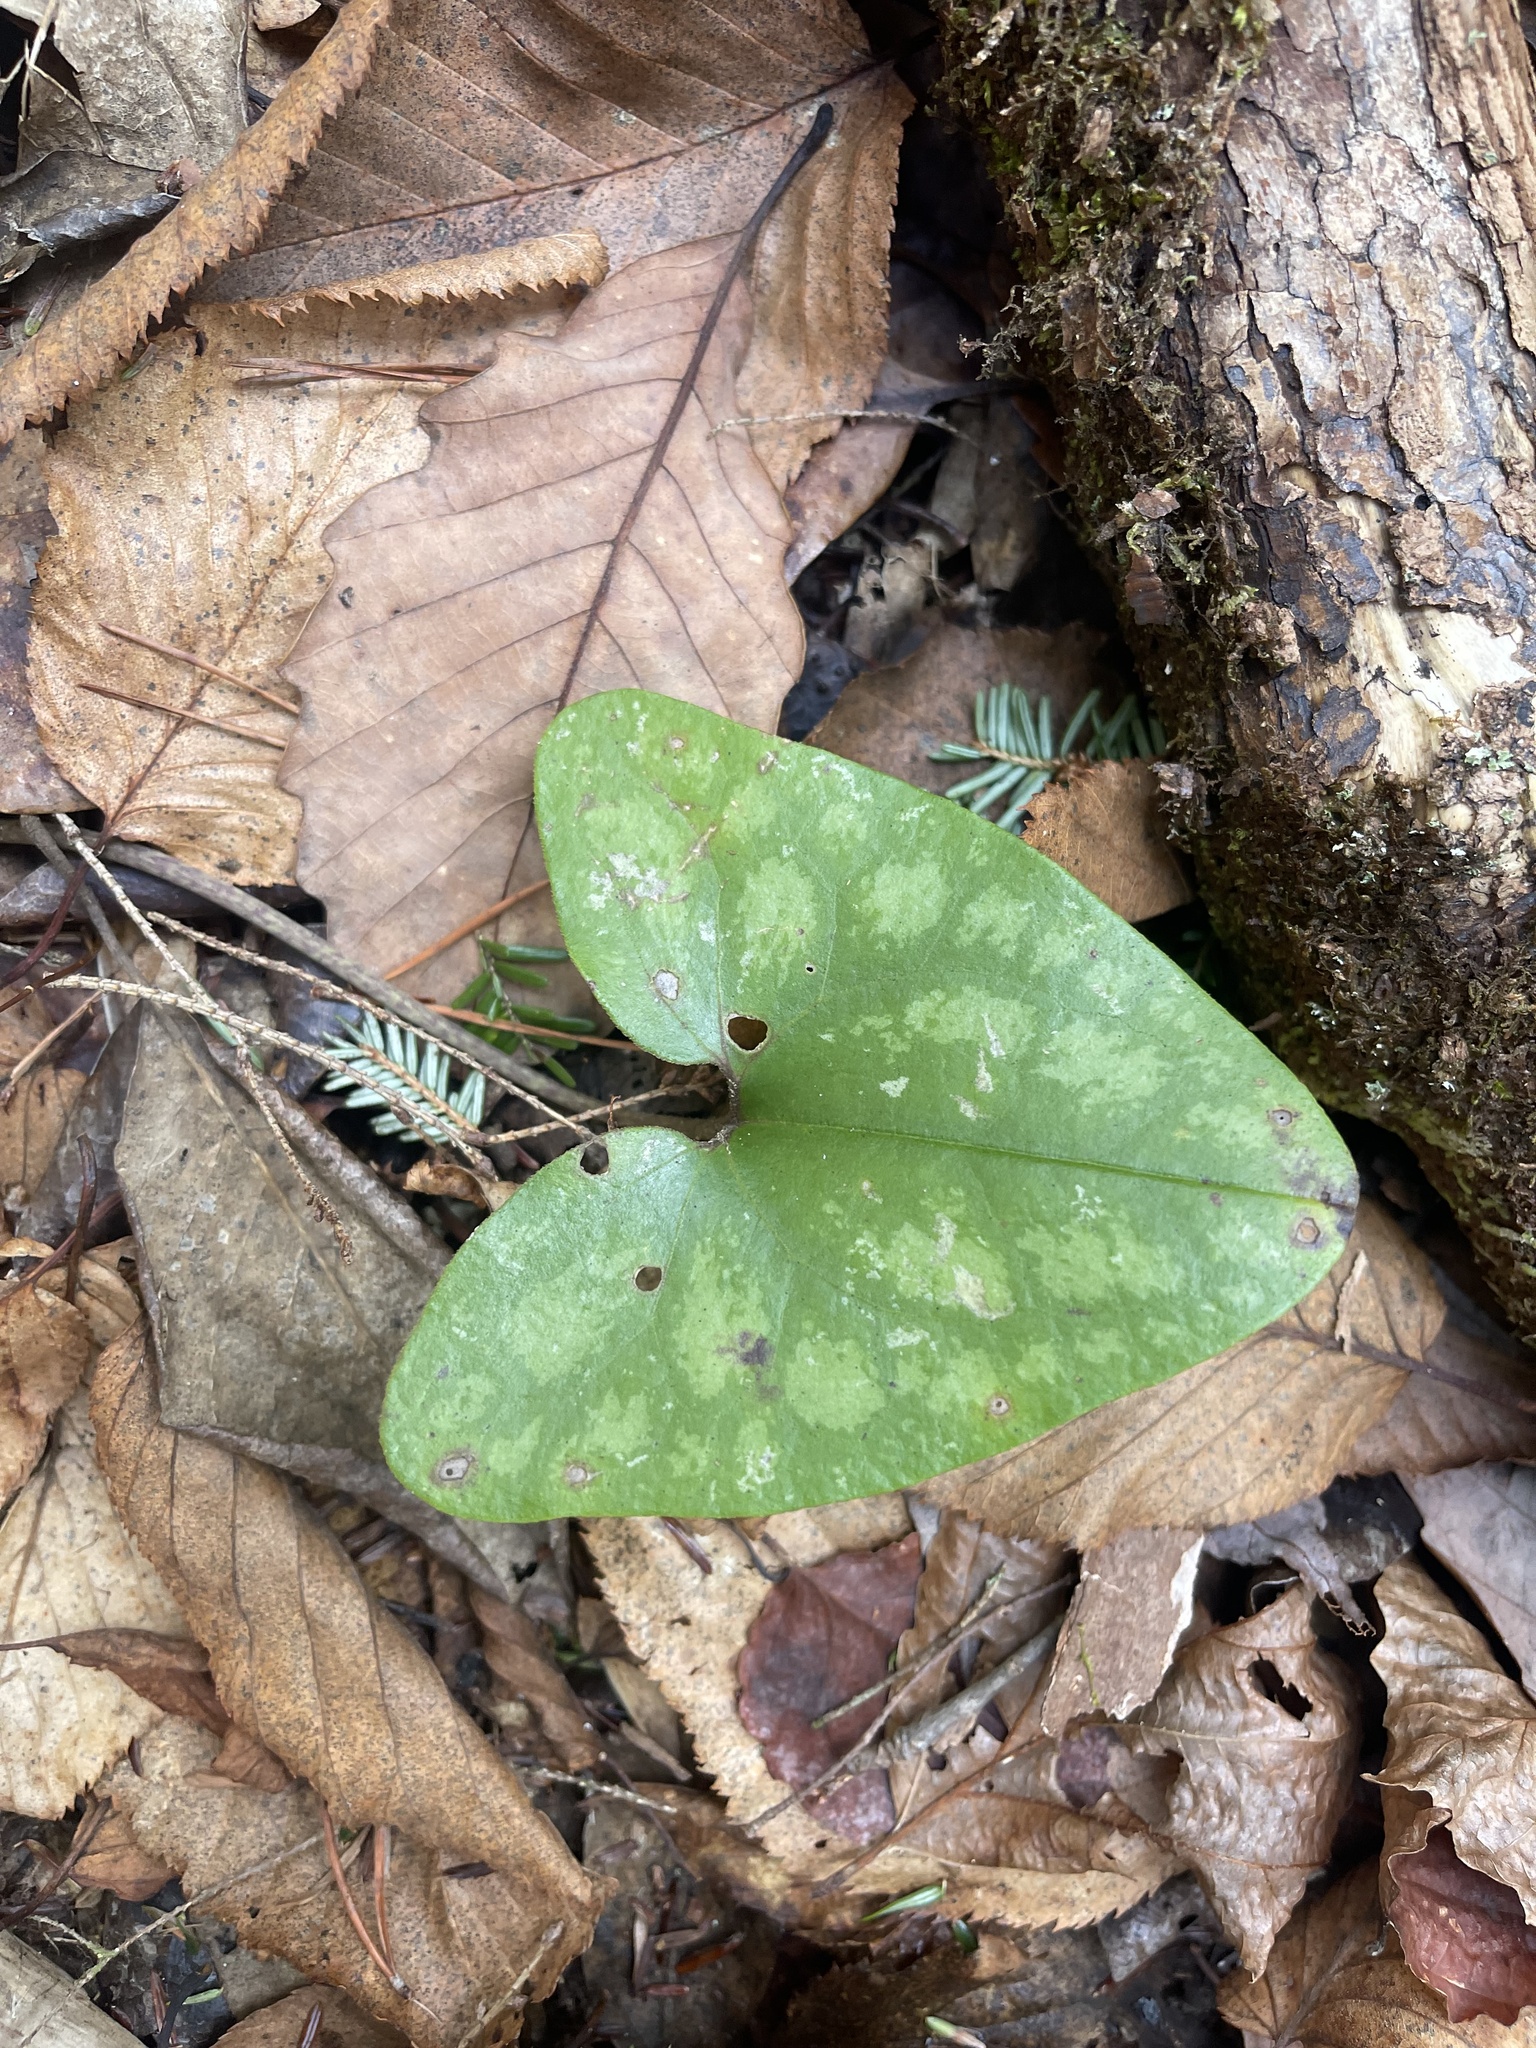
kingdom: Plantae
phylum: Tracheophyta
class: Magnoliopsida
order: Piperales
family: Aristolochiaceae
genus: Hexastylis
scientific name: Hexastylis arifolia
